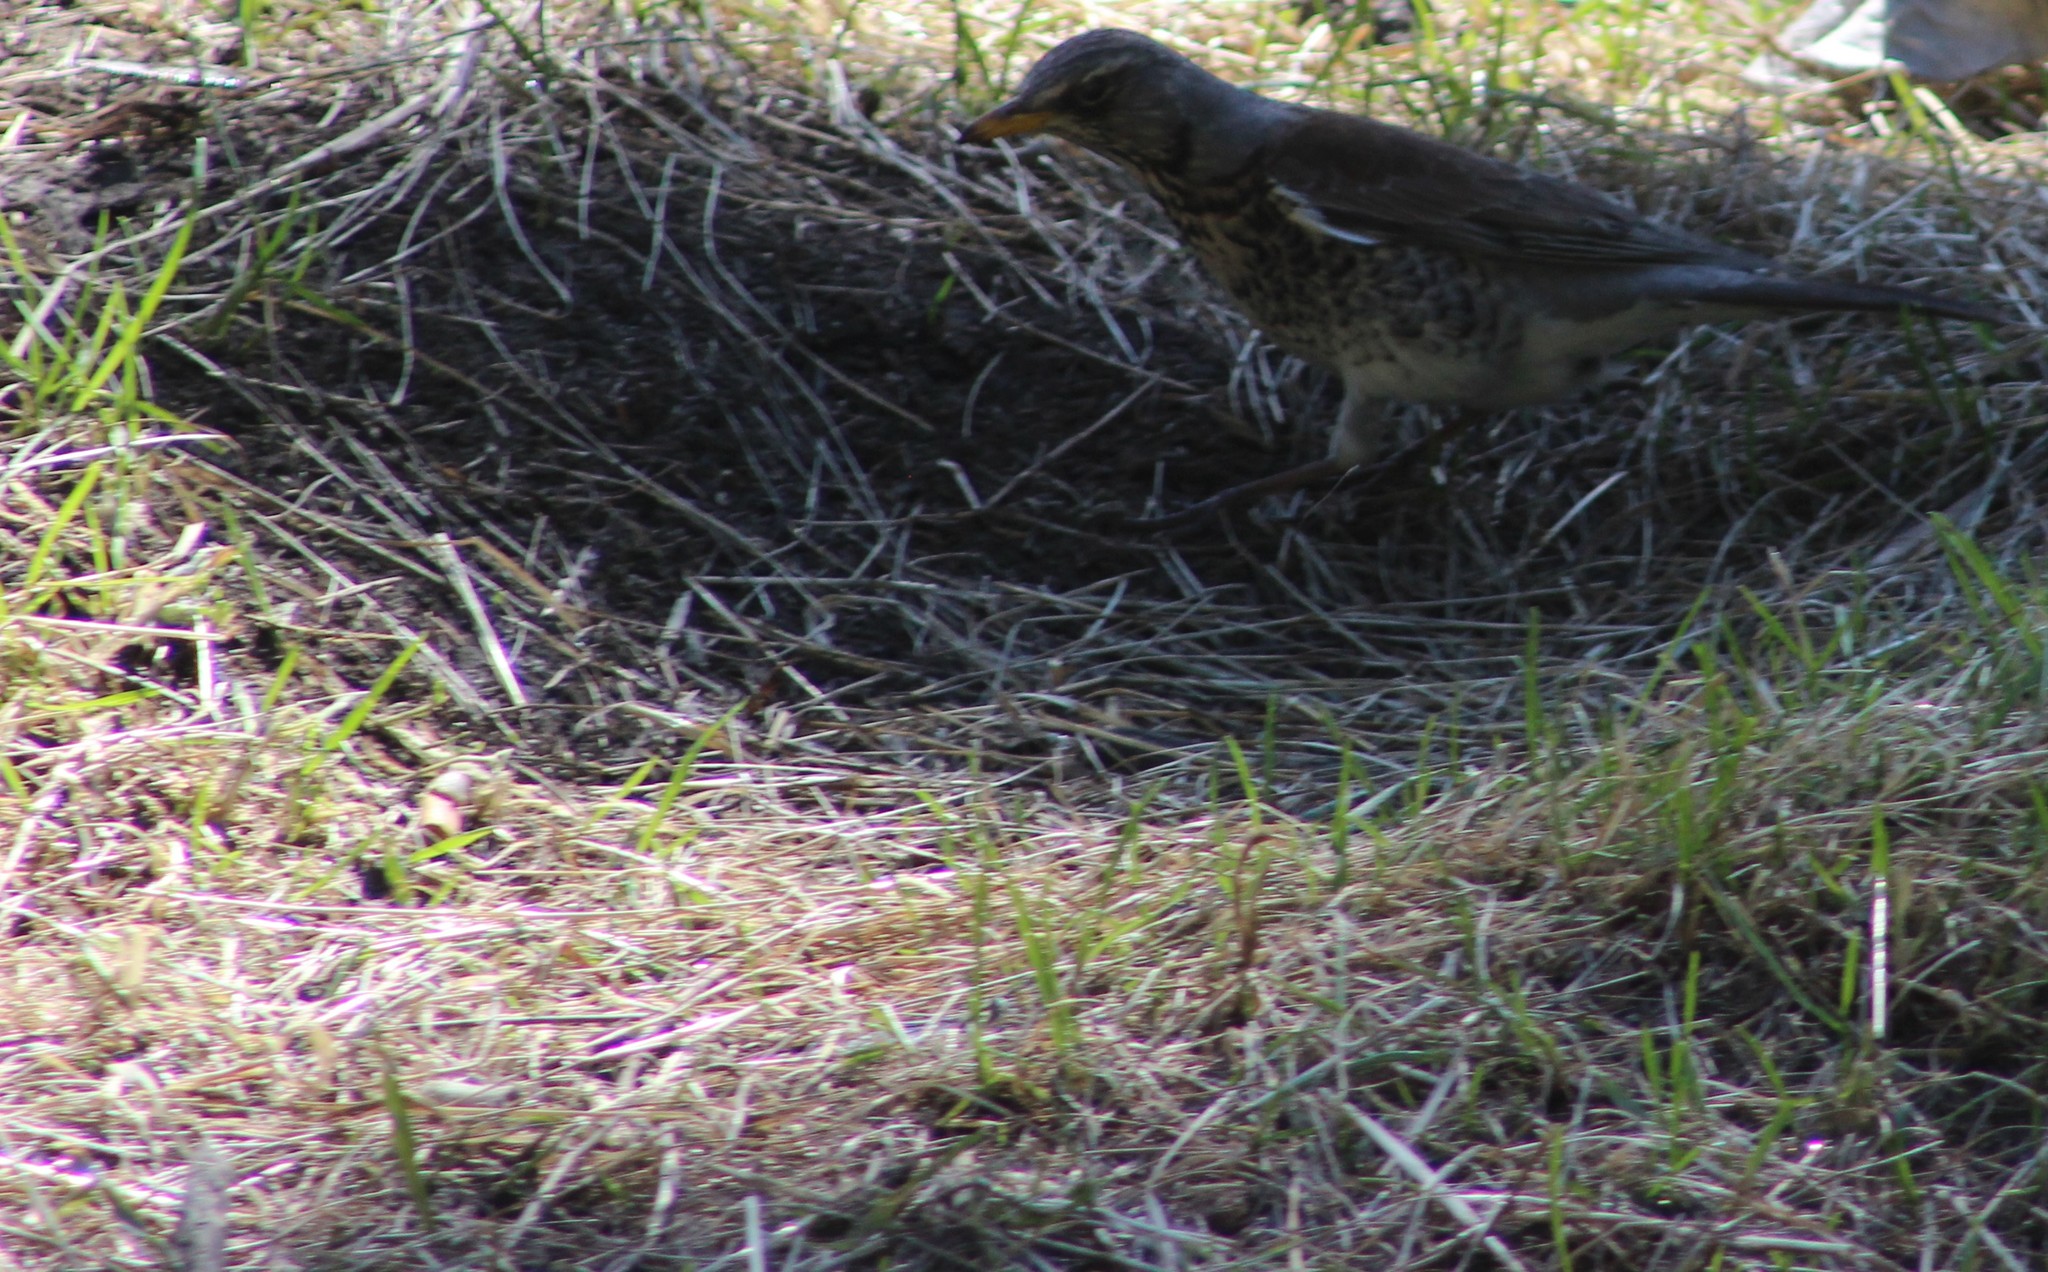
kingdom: Animalia
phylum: Chordata
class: Aves
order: Passeriformes
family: Turdidae
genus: Turdus
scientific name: Turdus pilaris
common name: Fieldfare
